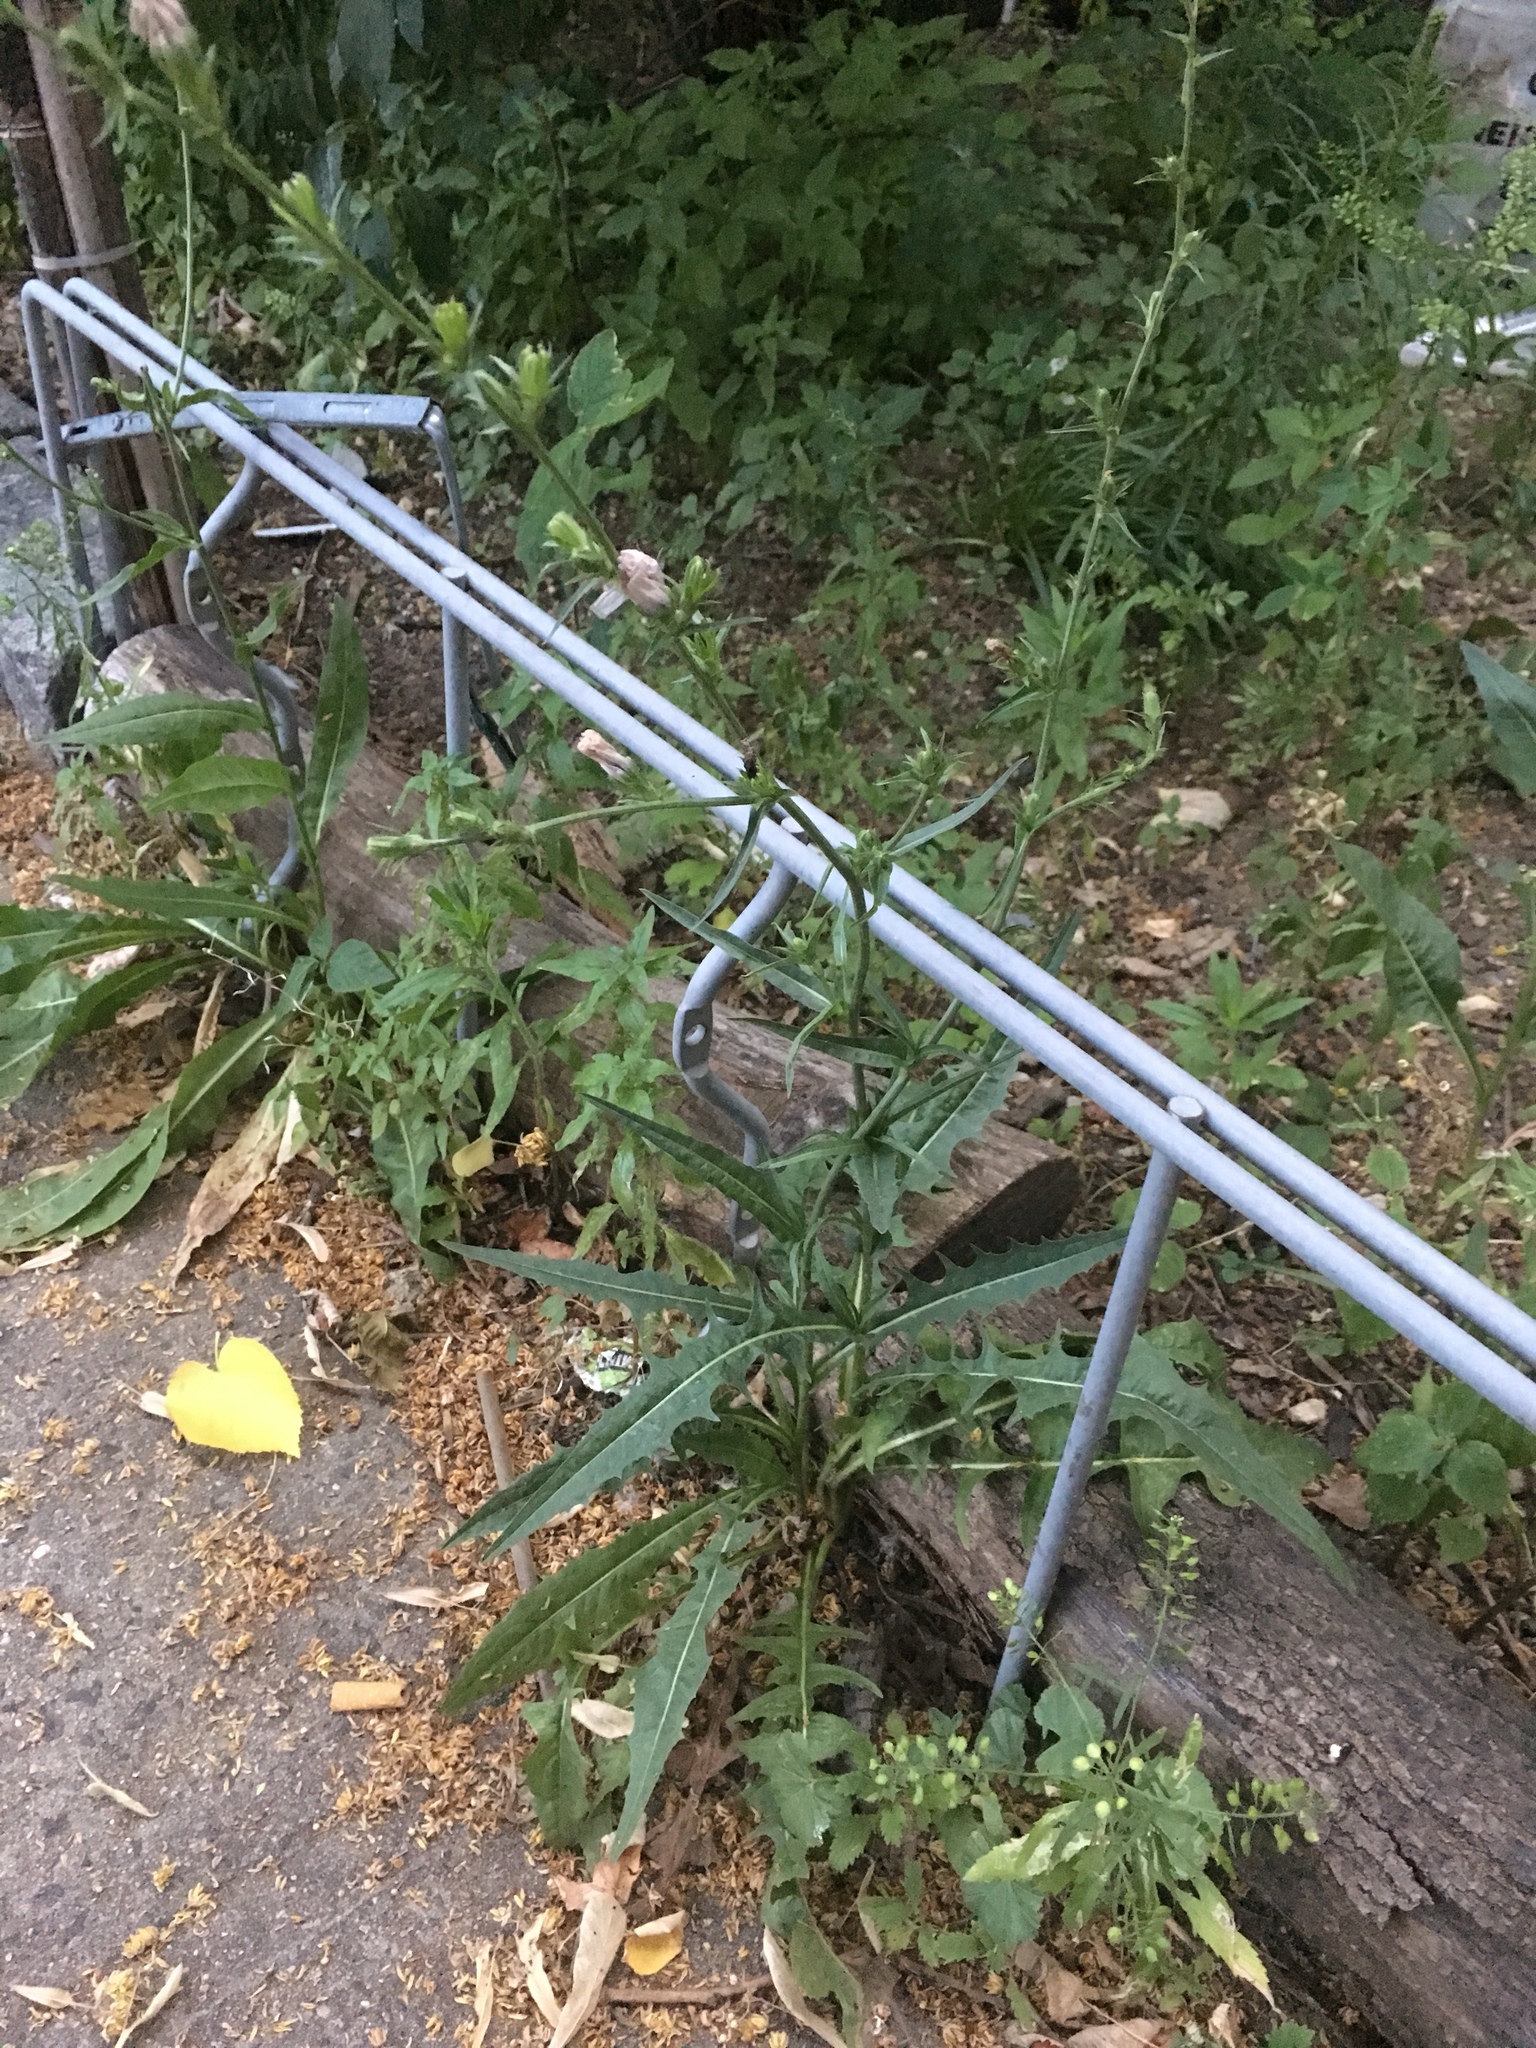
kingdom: Plantae
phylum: Tracheophyta
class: Magnoliopsida
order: Asterales
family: Asteraceae
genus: Cichorium
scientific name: Cichorium intybus
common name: Chicory
